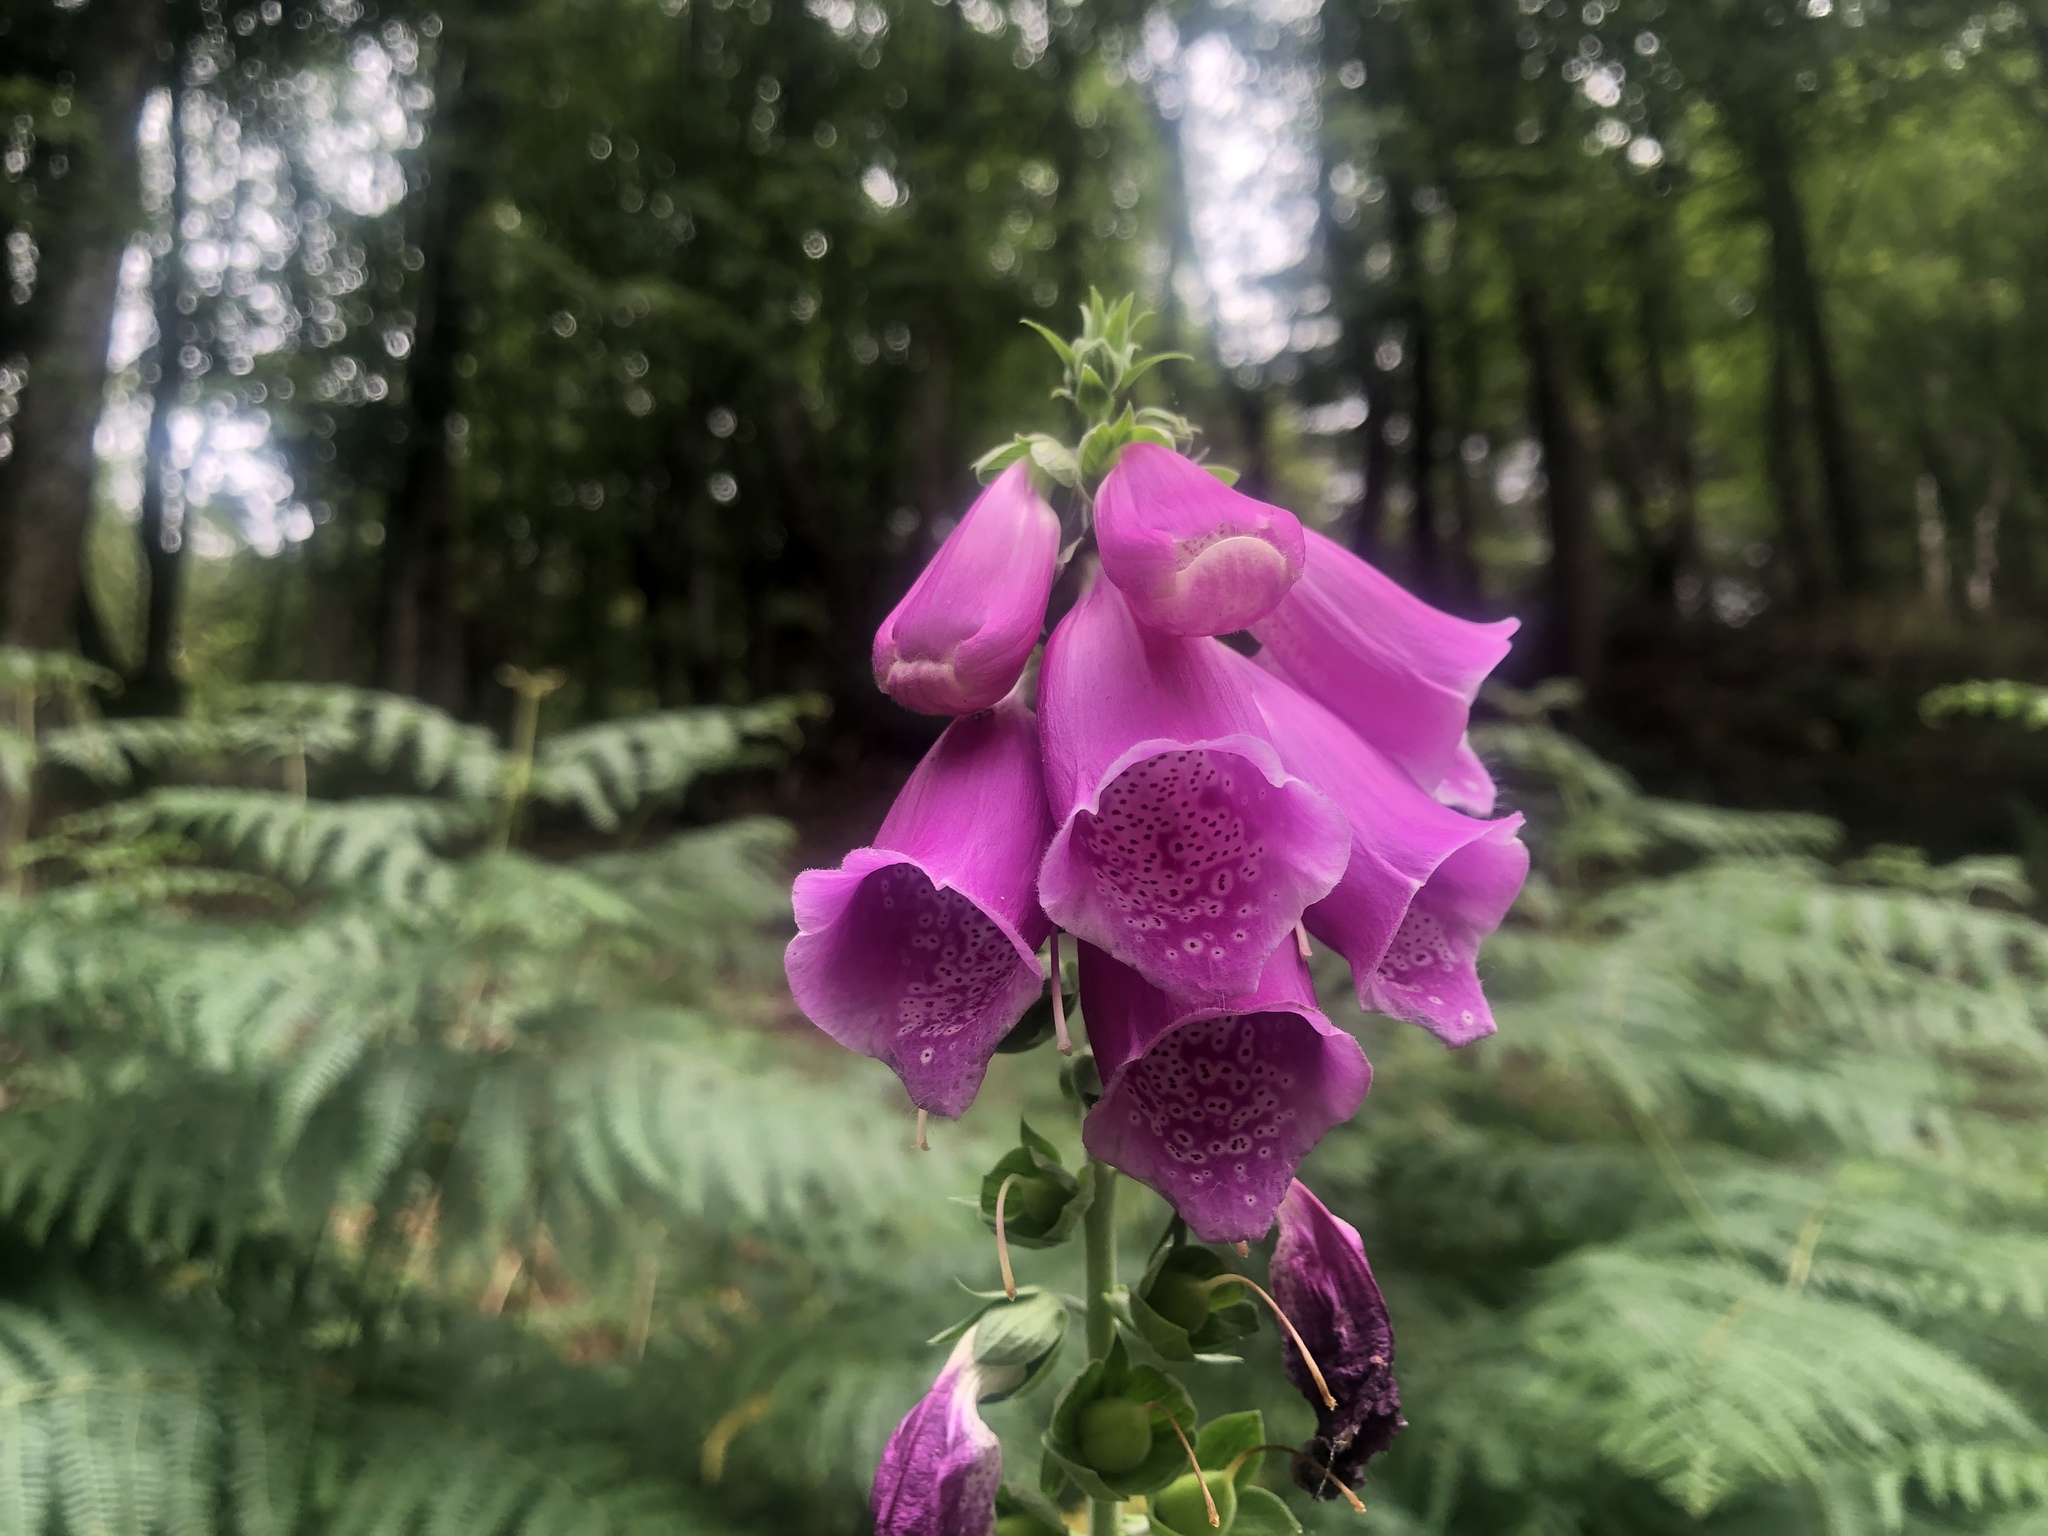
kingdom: Plantae
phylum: Tracheophyta
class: Magnoliopsida
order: Lamiales
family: Plantaginaceae
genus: Digitalis
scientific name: Digitalis purpurea
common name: Foxglove
